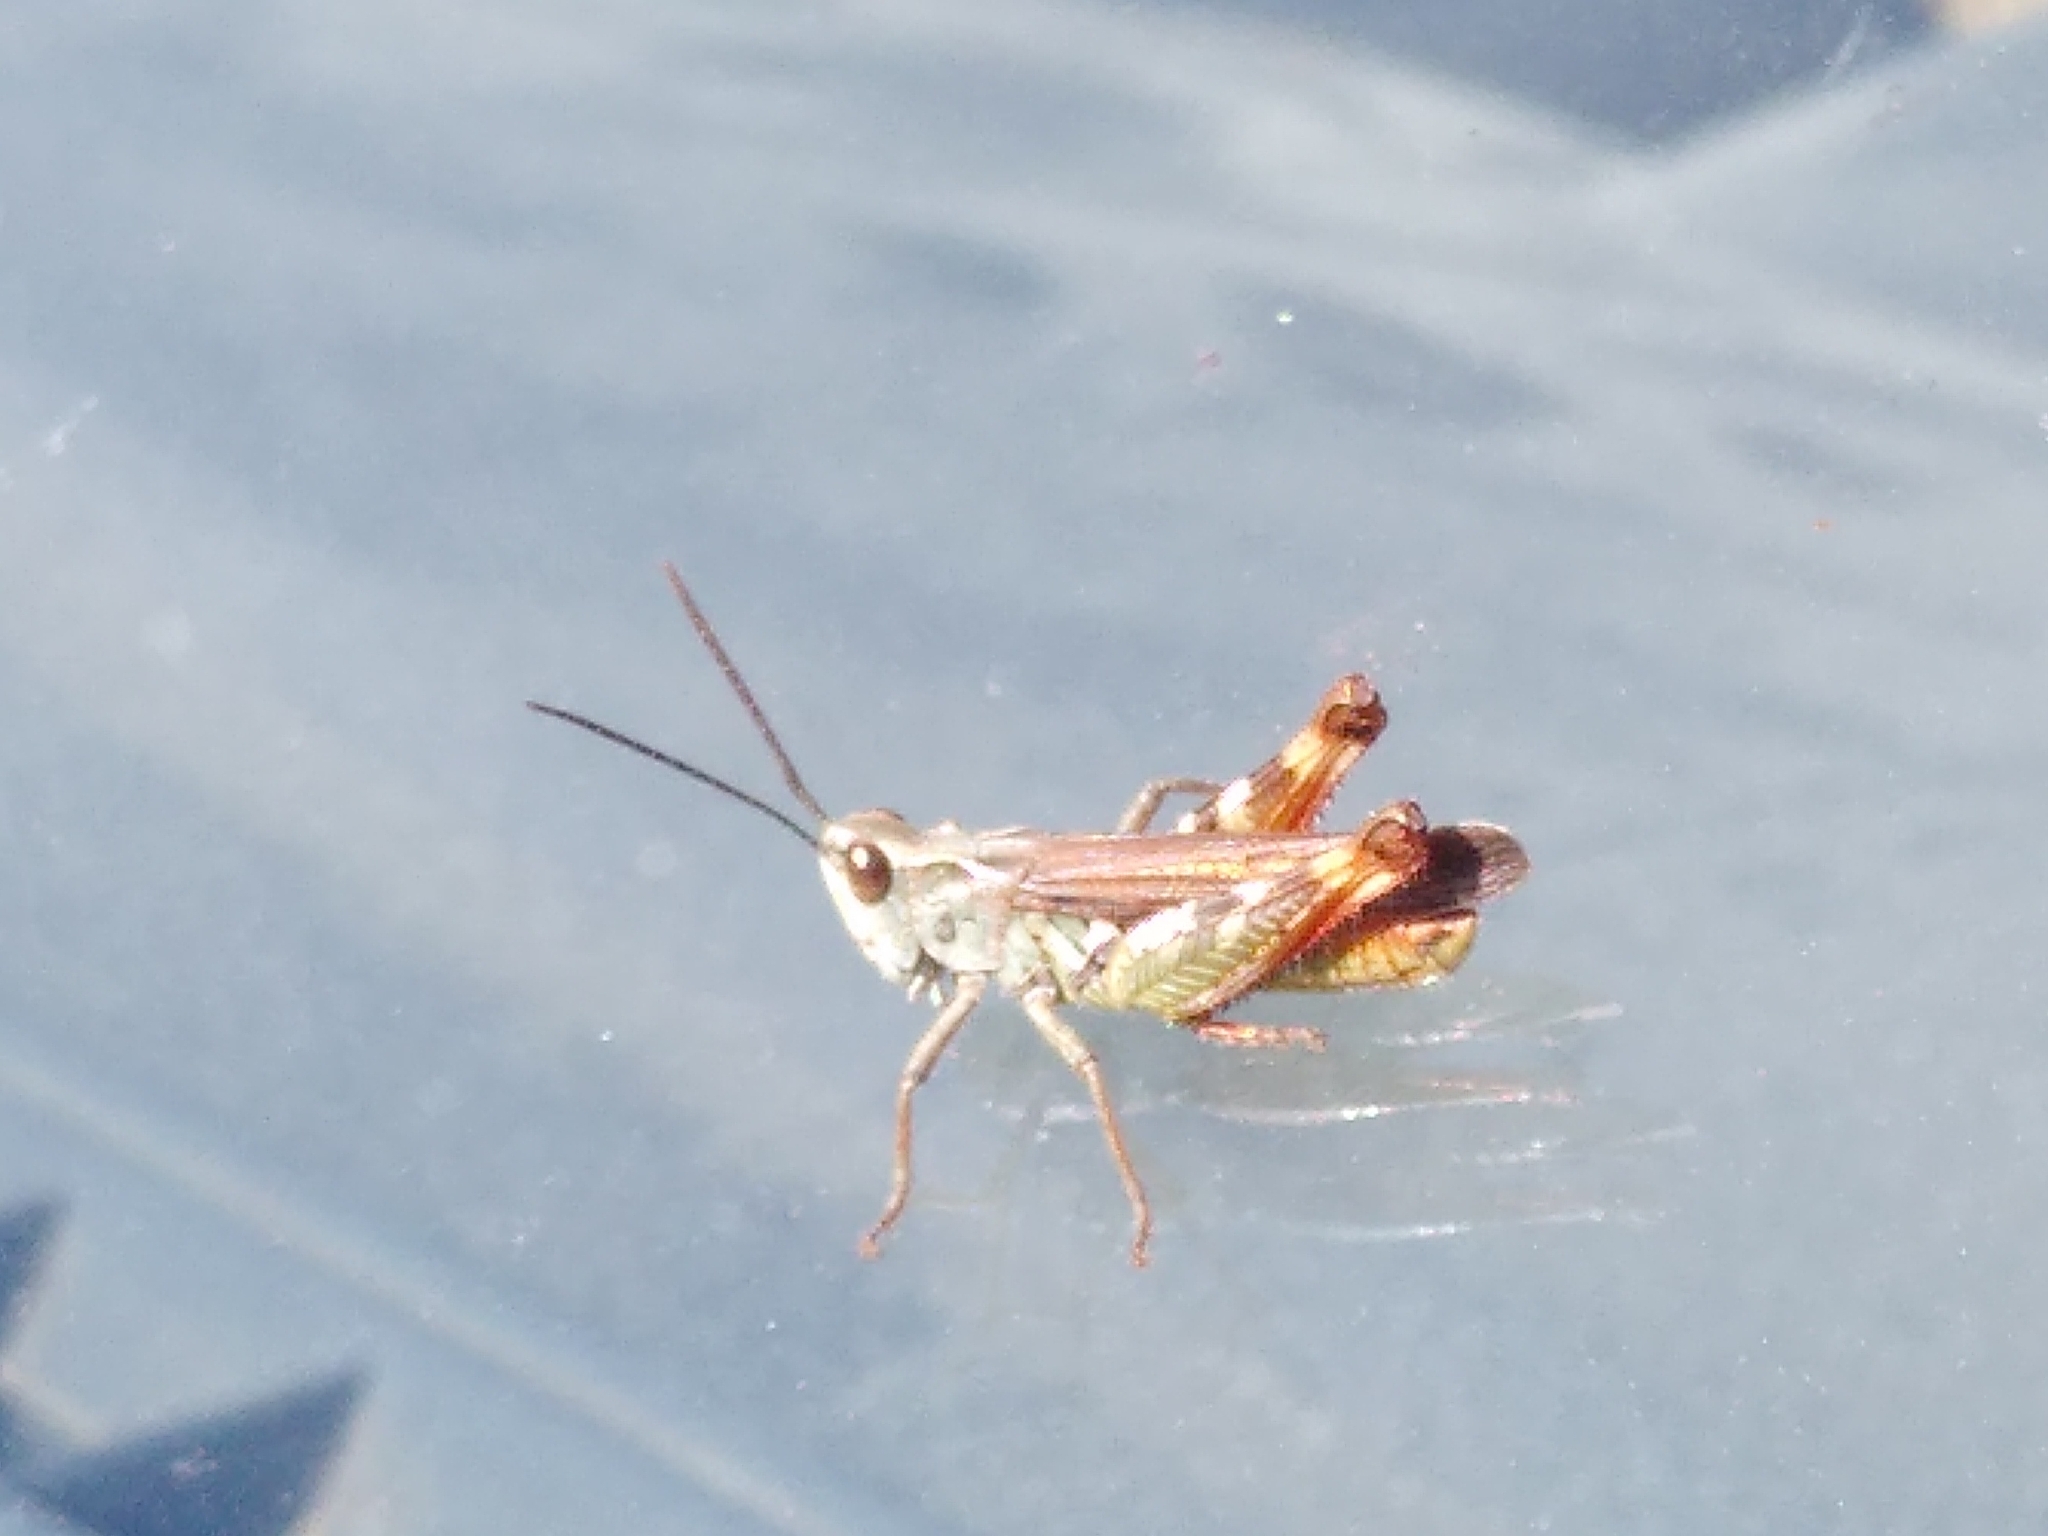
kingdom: Animalia
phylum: Arthropoda
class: Insecta
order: Orthoptera
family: Acrididae
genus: Chorthippus
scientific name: Chorthippus binotatus
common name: Two-marked grasshopper
